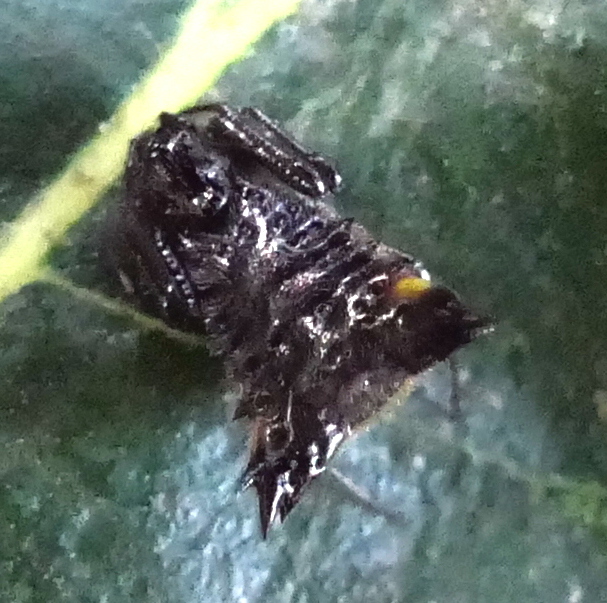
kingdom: Animalia
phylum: Arthropoda
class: Arachnida
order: Araneae
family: Araneidae
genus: Micrathena
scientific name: Micrathena triangularis
